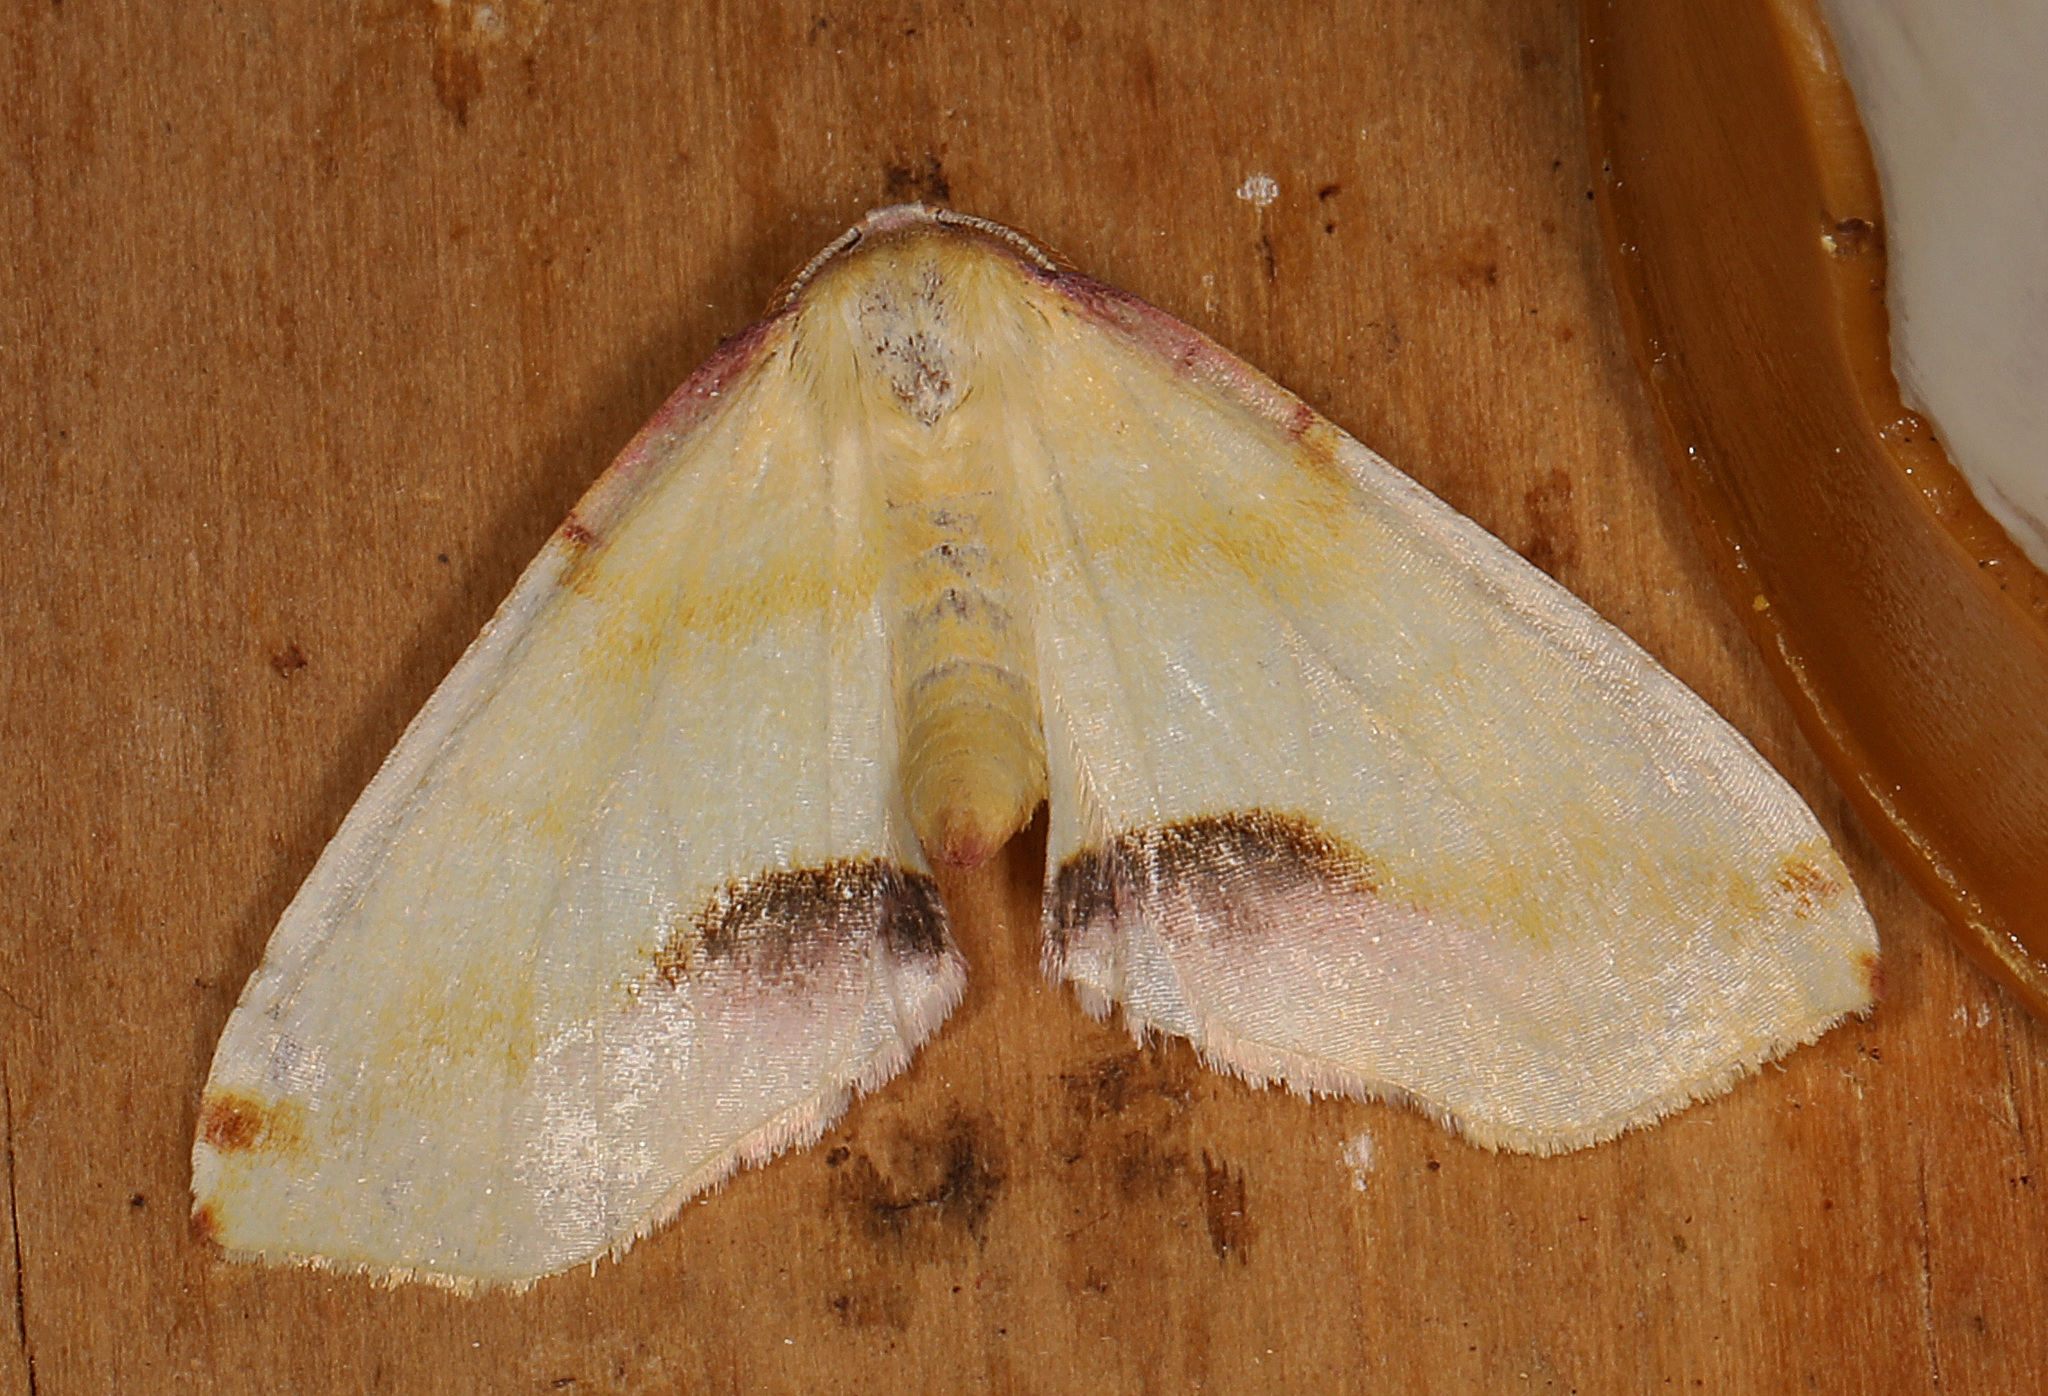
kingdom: Animalia
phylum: Arthropoda
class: Insecta
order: Lepidoptera
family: Geometridae
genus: Plagodis
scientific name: Plagodis serinaria
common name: Lemon plagodis
